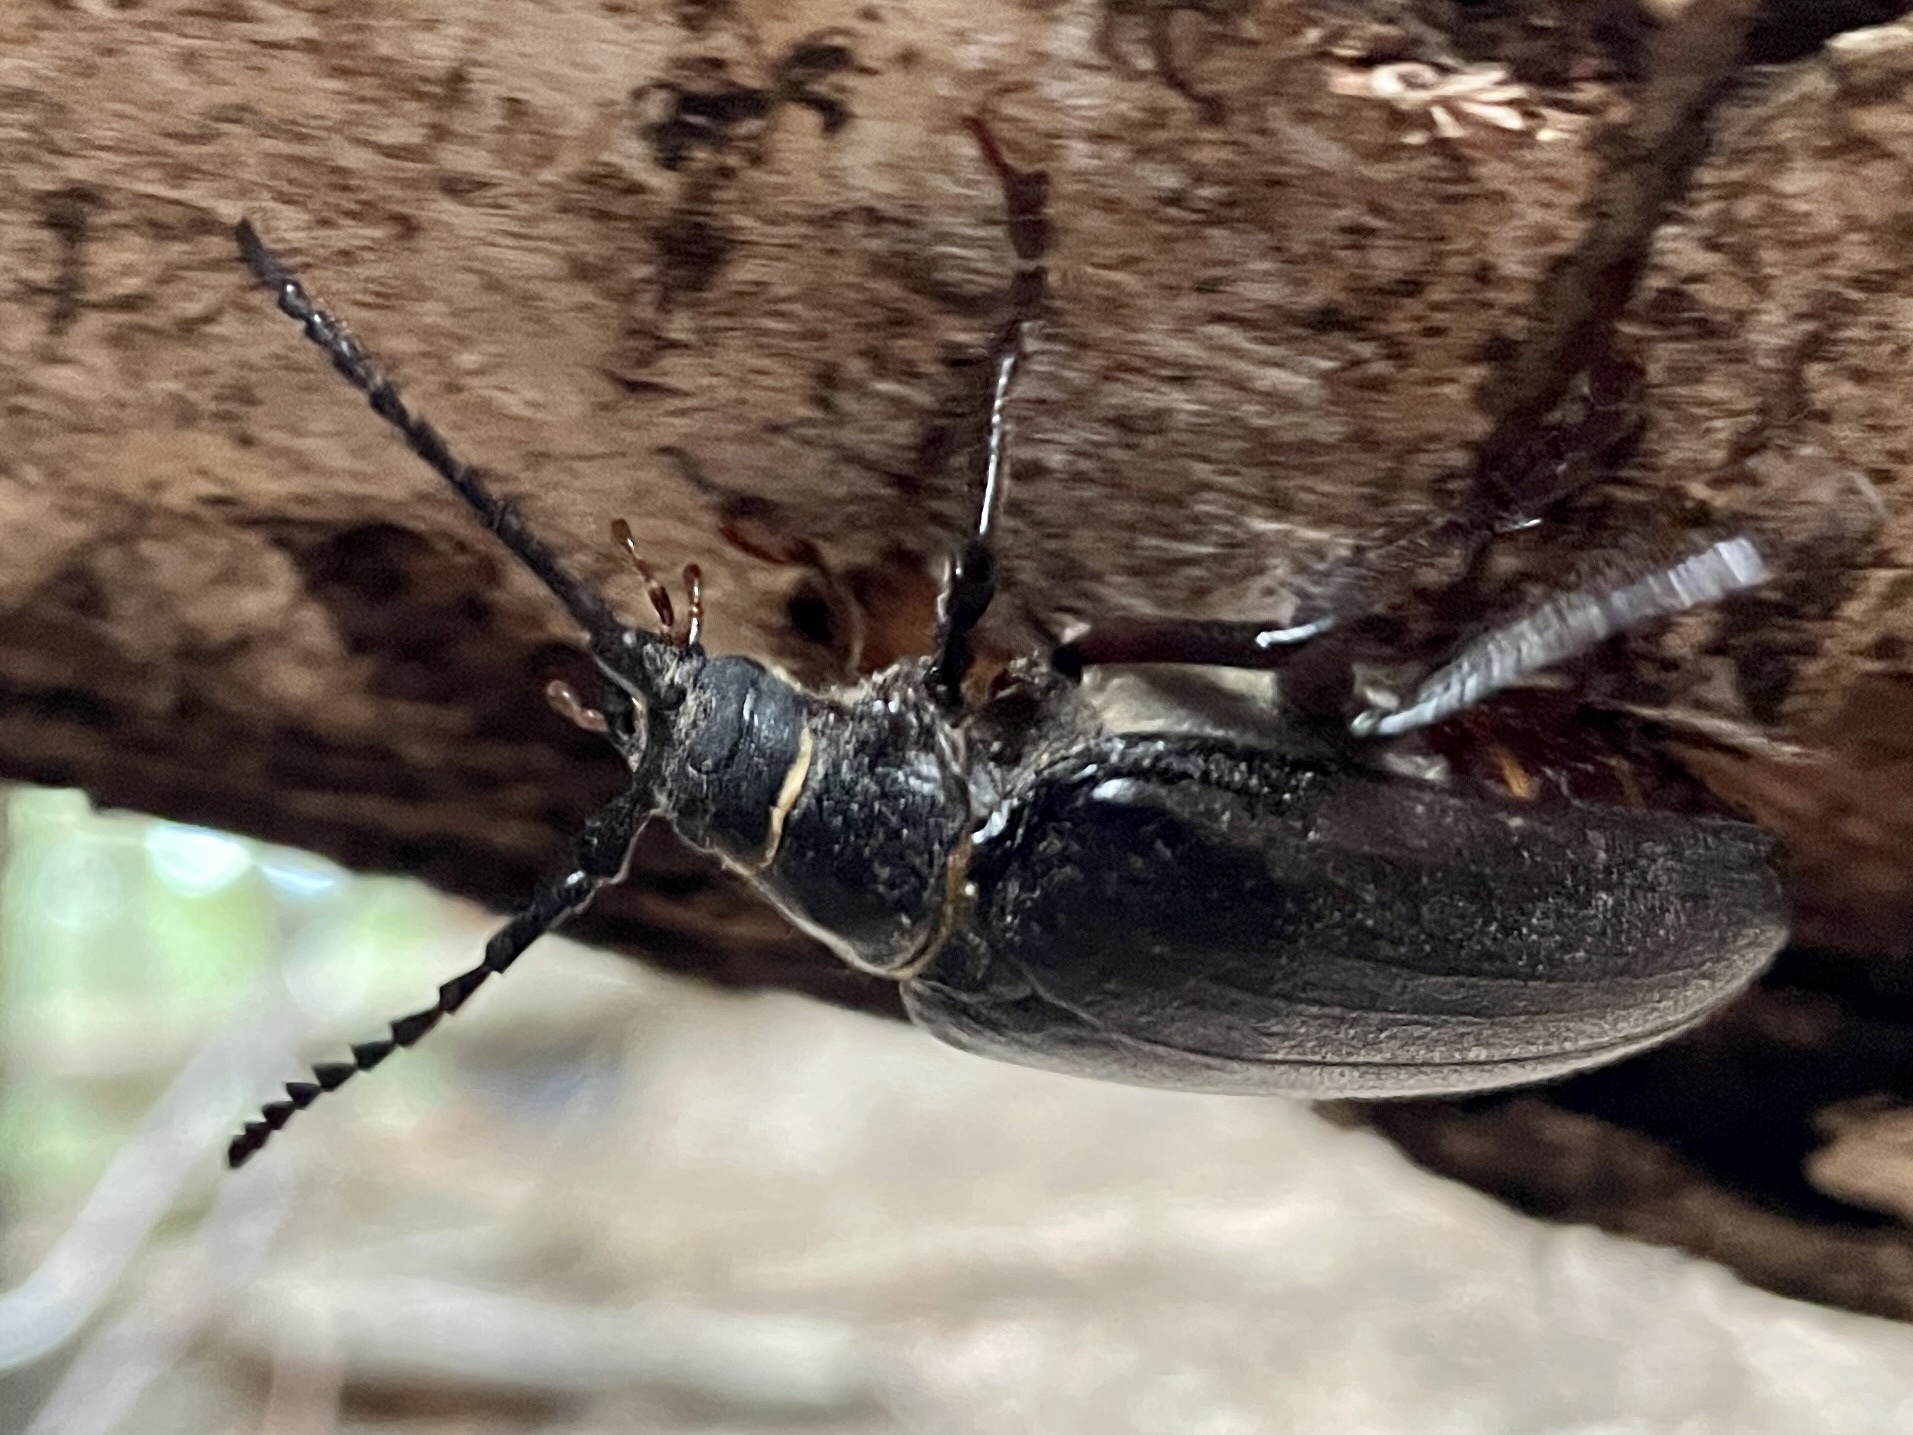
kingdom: Animalia
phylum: Arthropoda
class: Insecta
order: Coleoptera
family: Cerambycidae
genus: Prionus
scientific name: Prionus coriarius
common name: Tanner beetle
